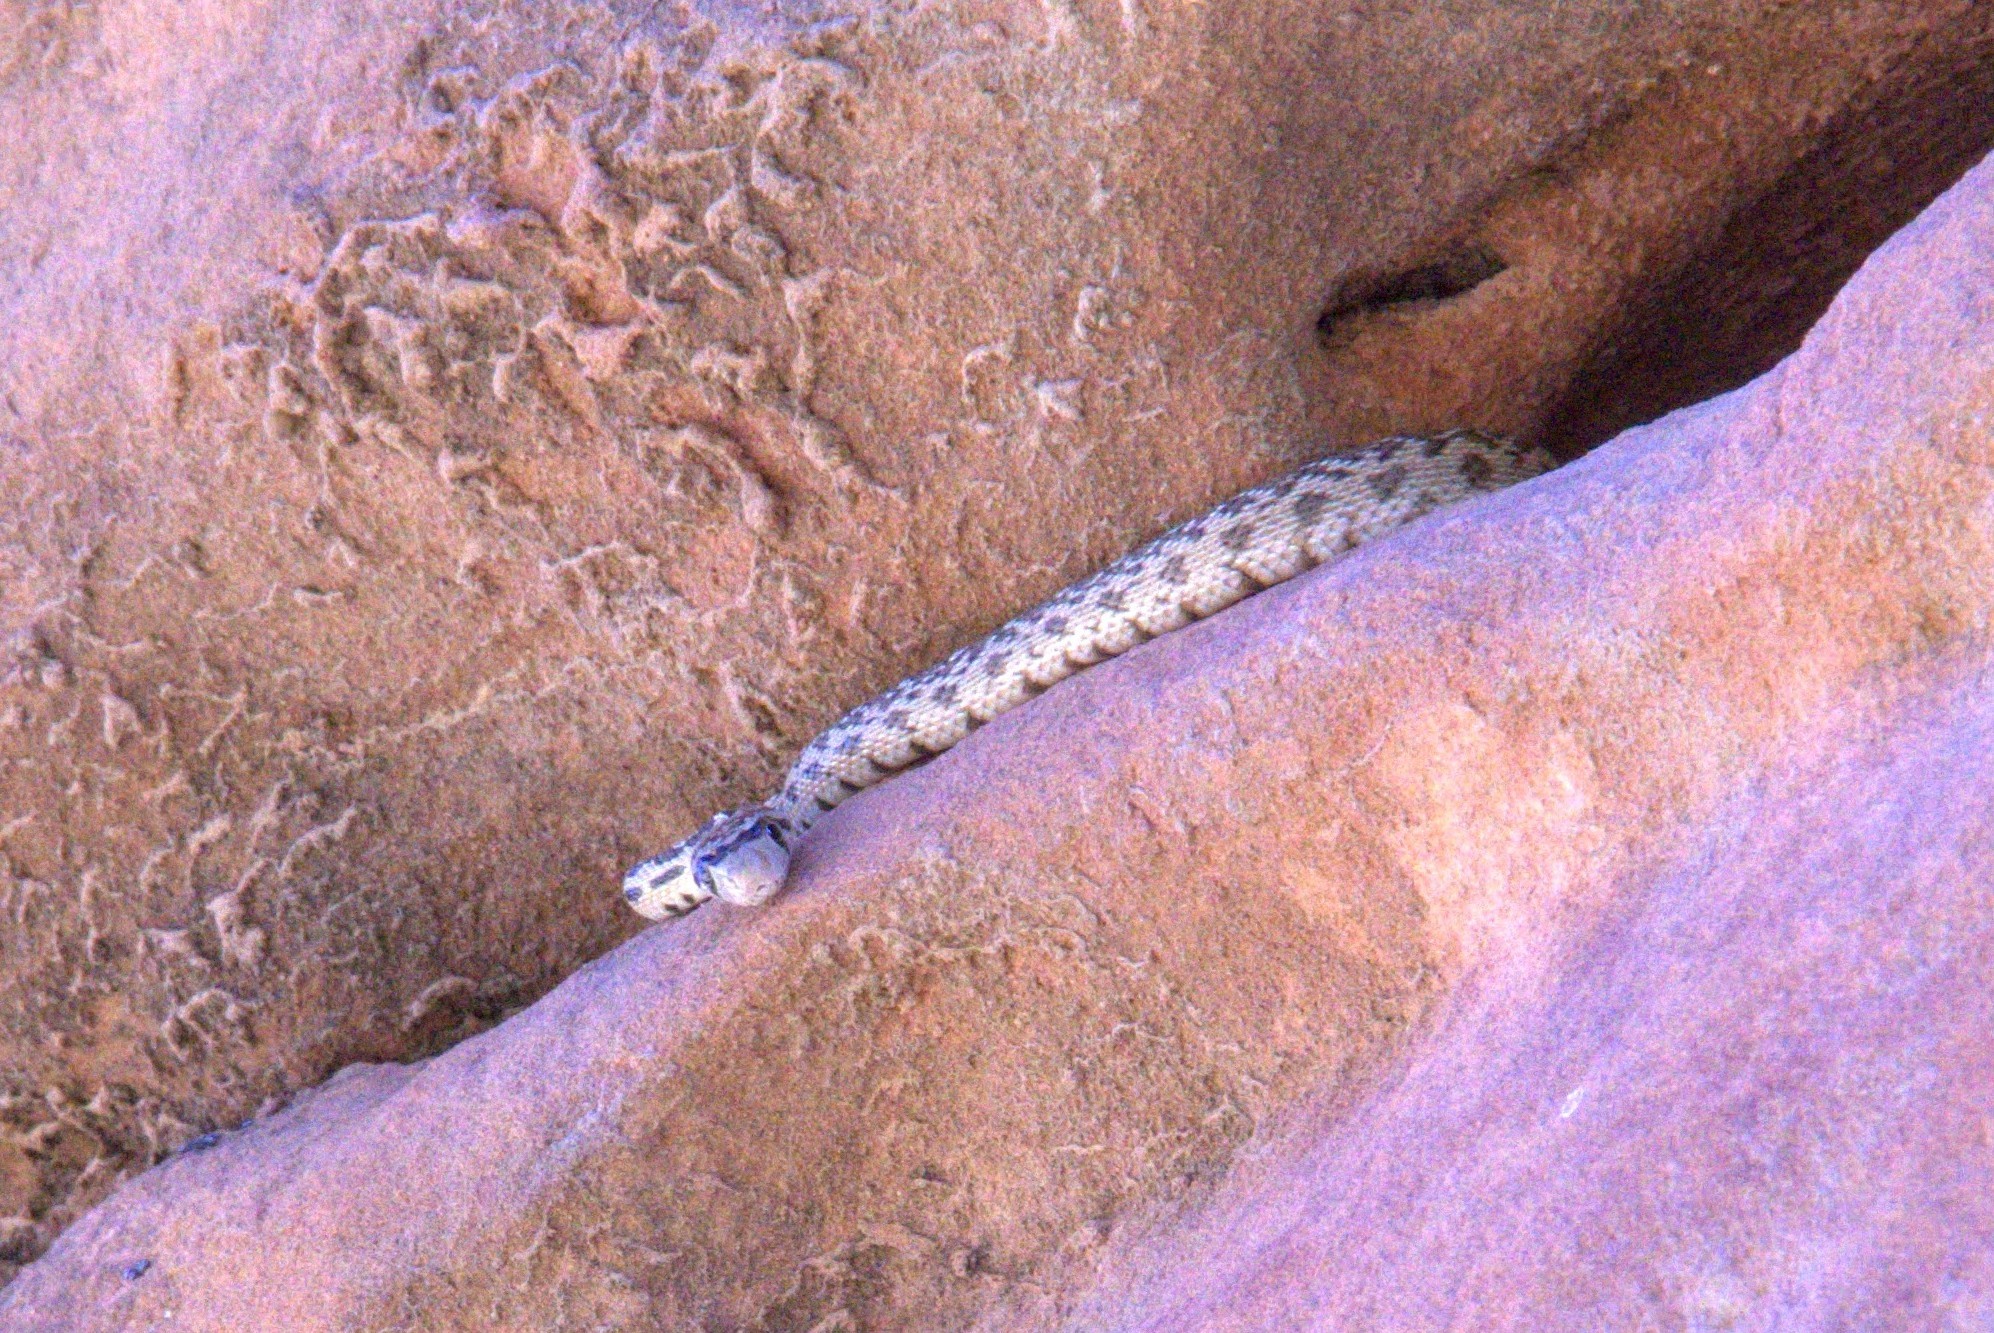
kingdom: Animalia
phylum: Chordata
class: Squamata
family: Colubridae
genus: Pituophis
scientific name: Pituophis catenifer
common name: Gopher snake
